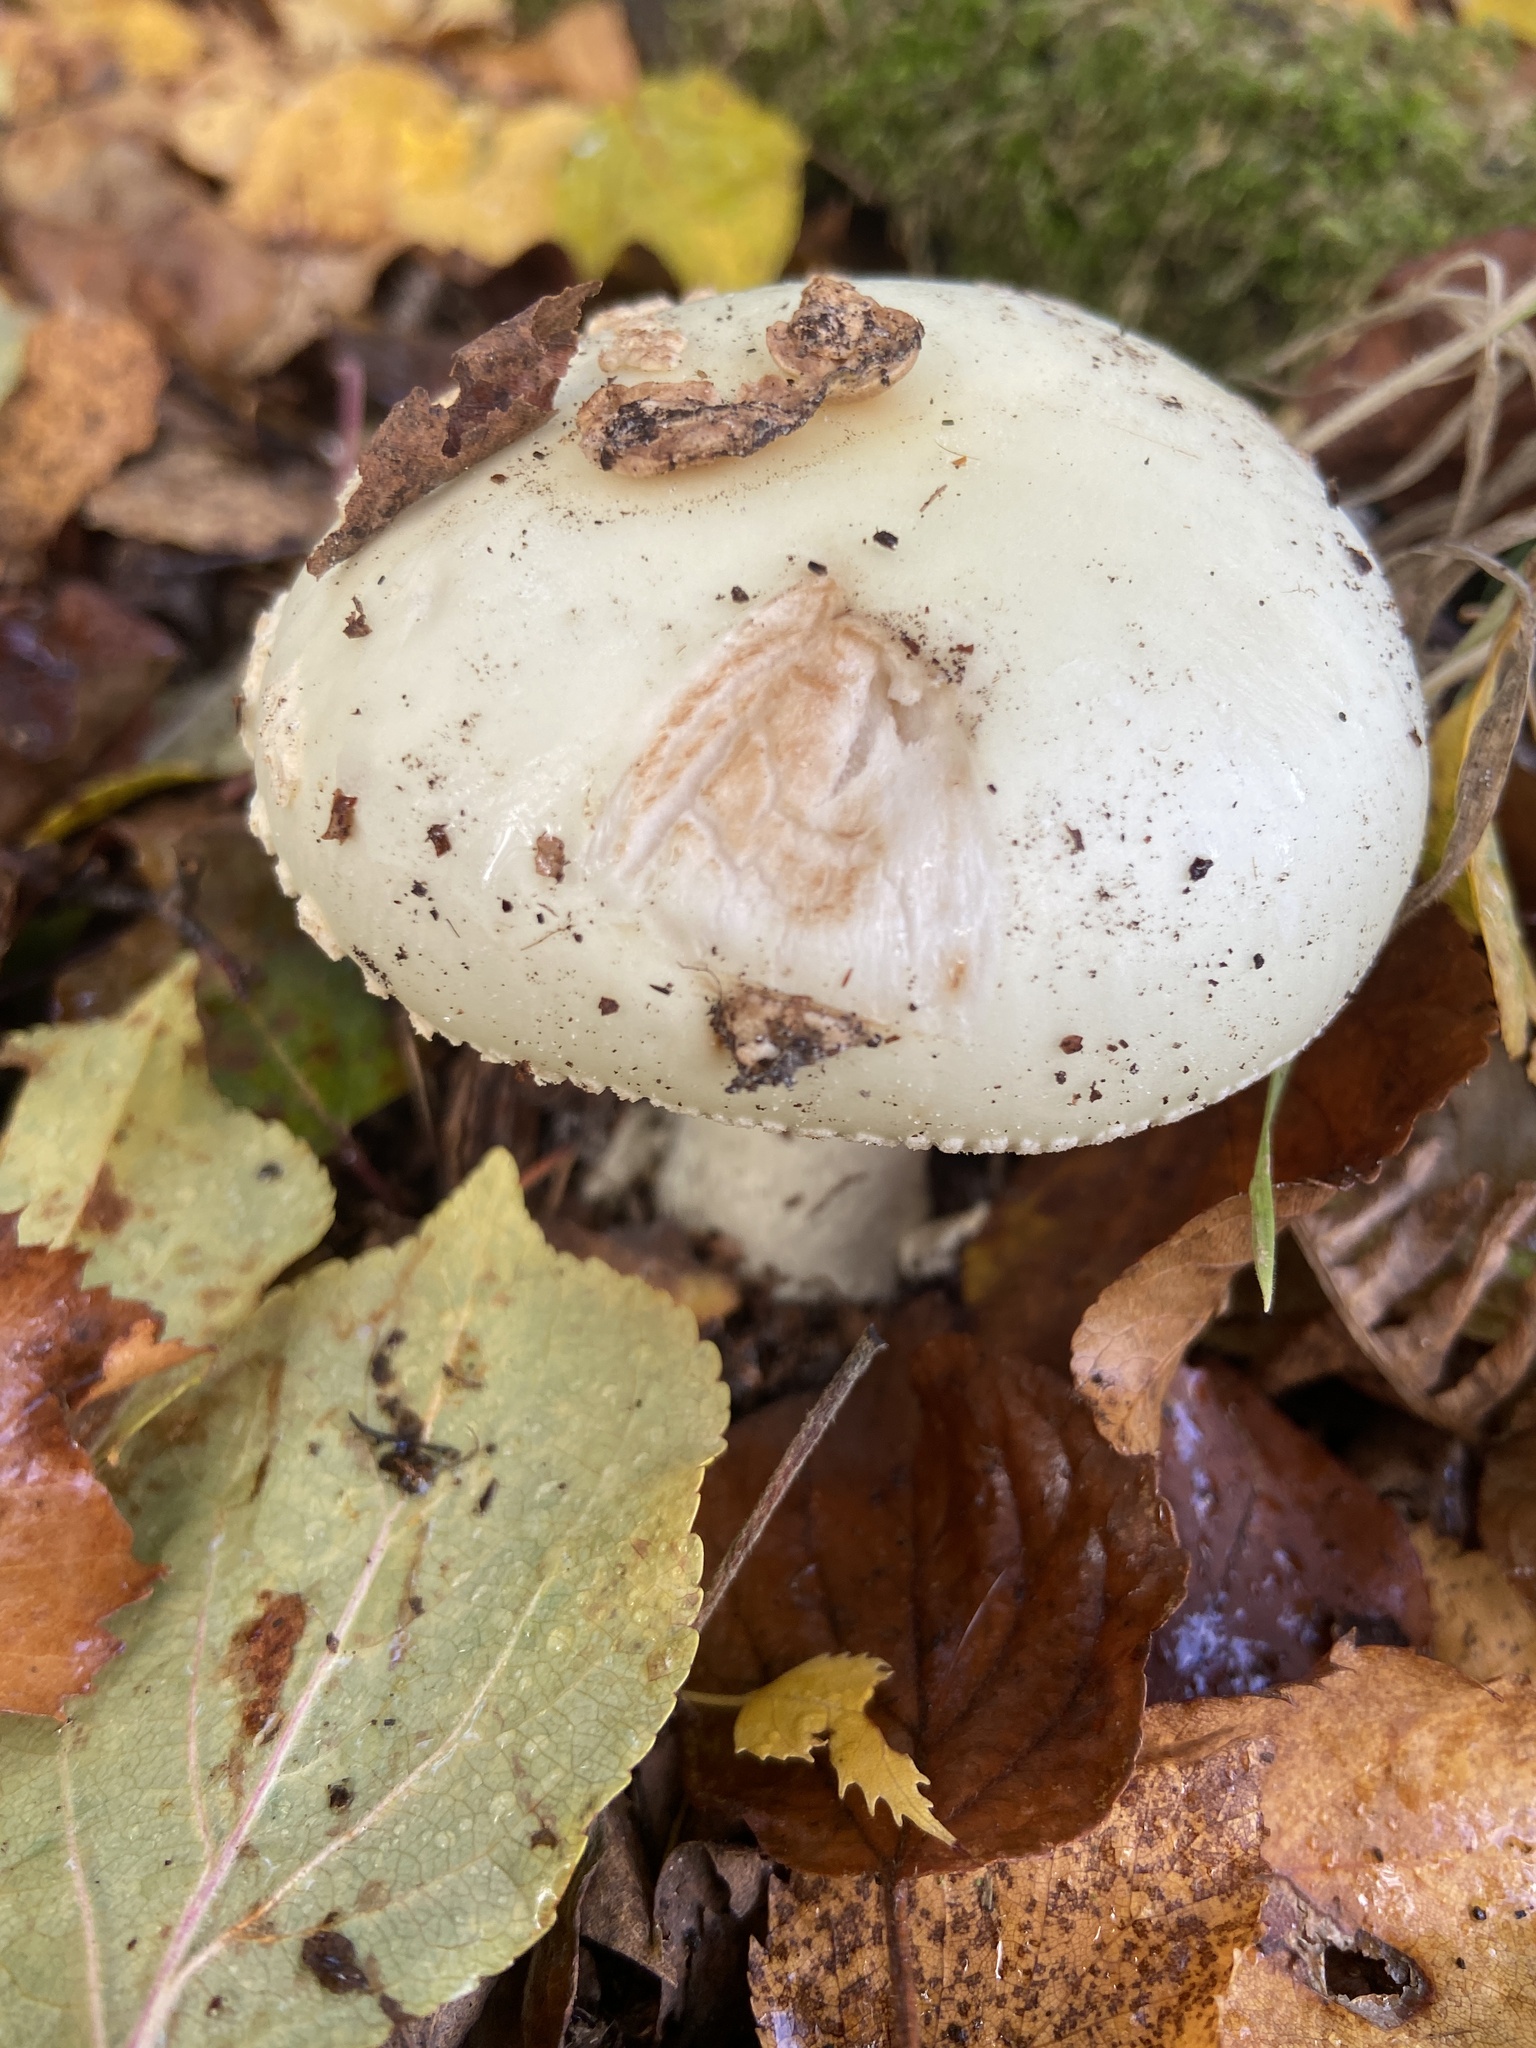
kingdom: Fungi
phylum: Basidiomycota
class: Agaricomycetes
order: Agaricales
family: Amanitaceae
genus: Amanita
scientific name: Amanita citrina
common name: False death-cap
